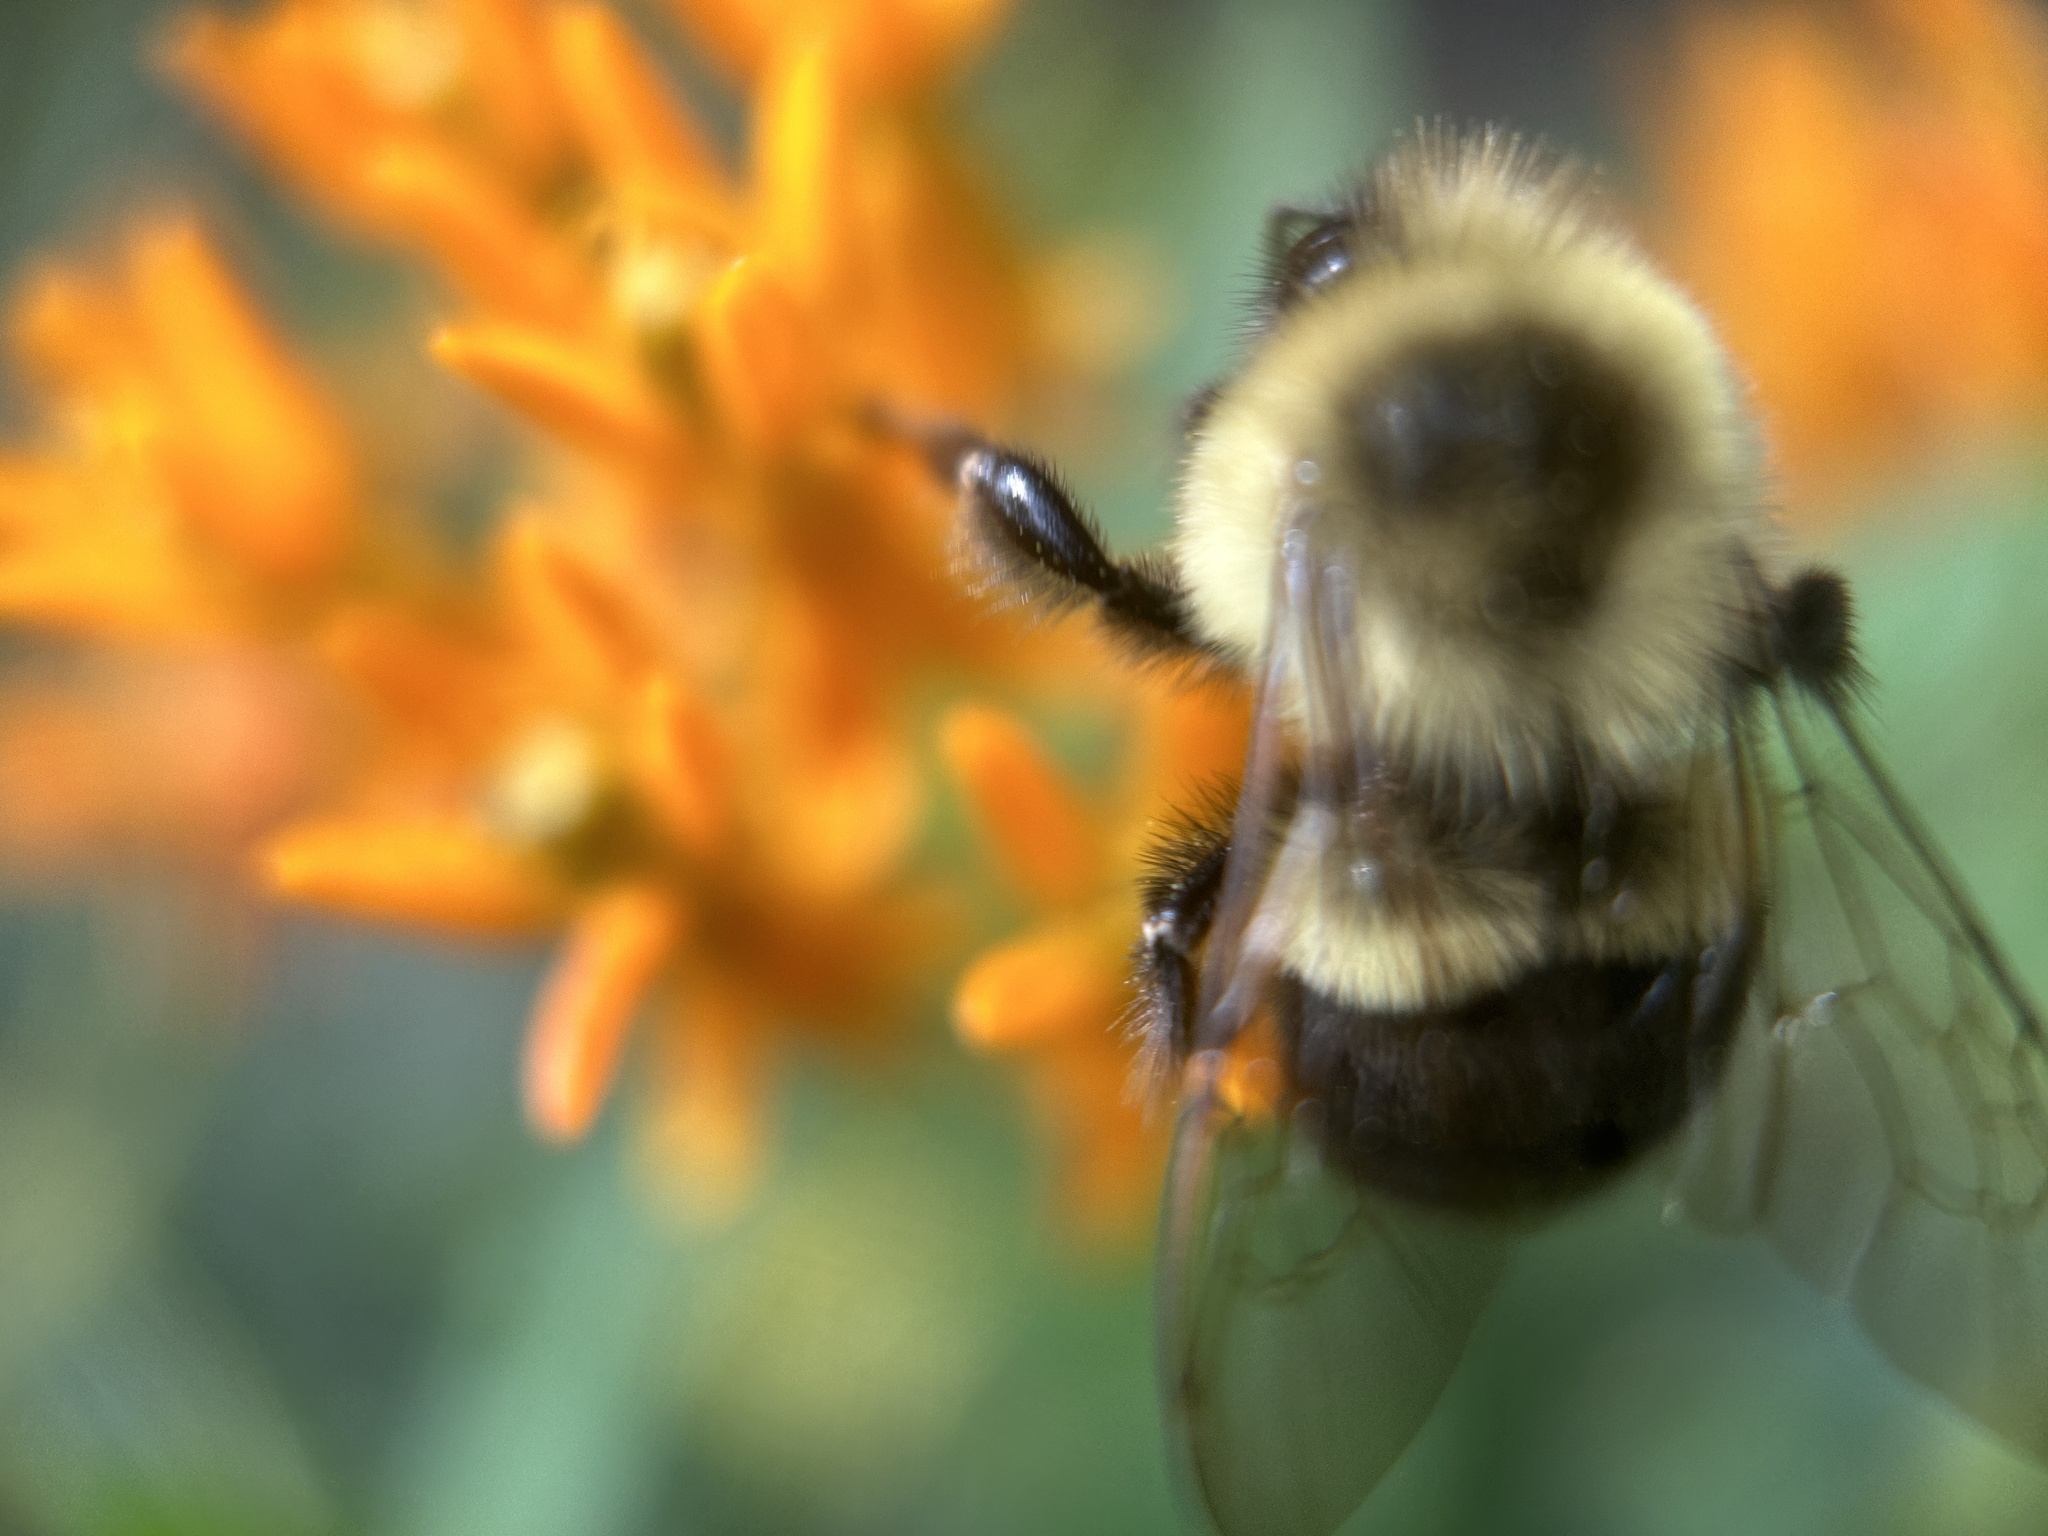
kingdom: Animalia
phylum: Arthropoda
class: Insecta
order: Hymenoptera
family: Apidae
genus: Bombus
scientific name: Bombus impatiens
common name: Common eastern bumble bee
